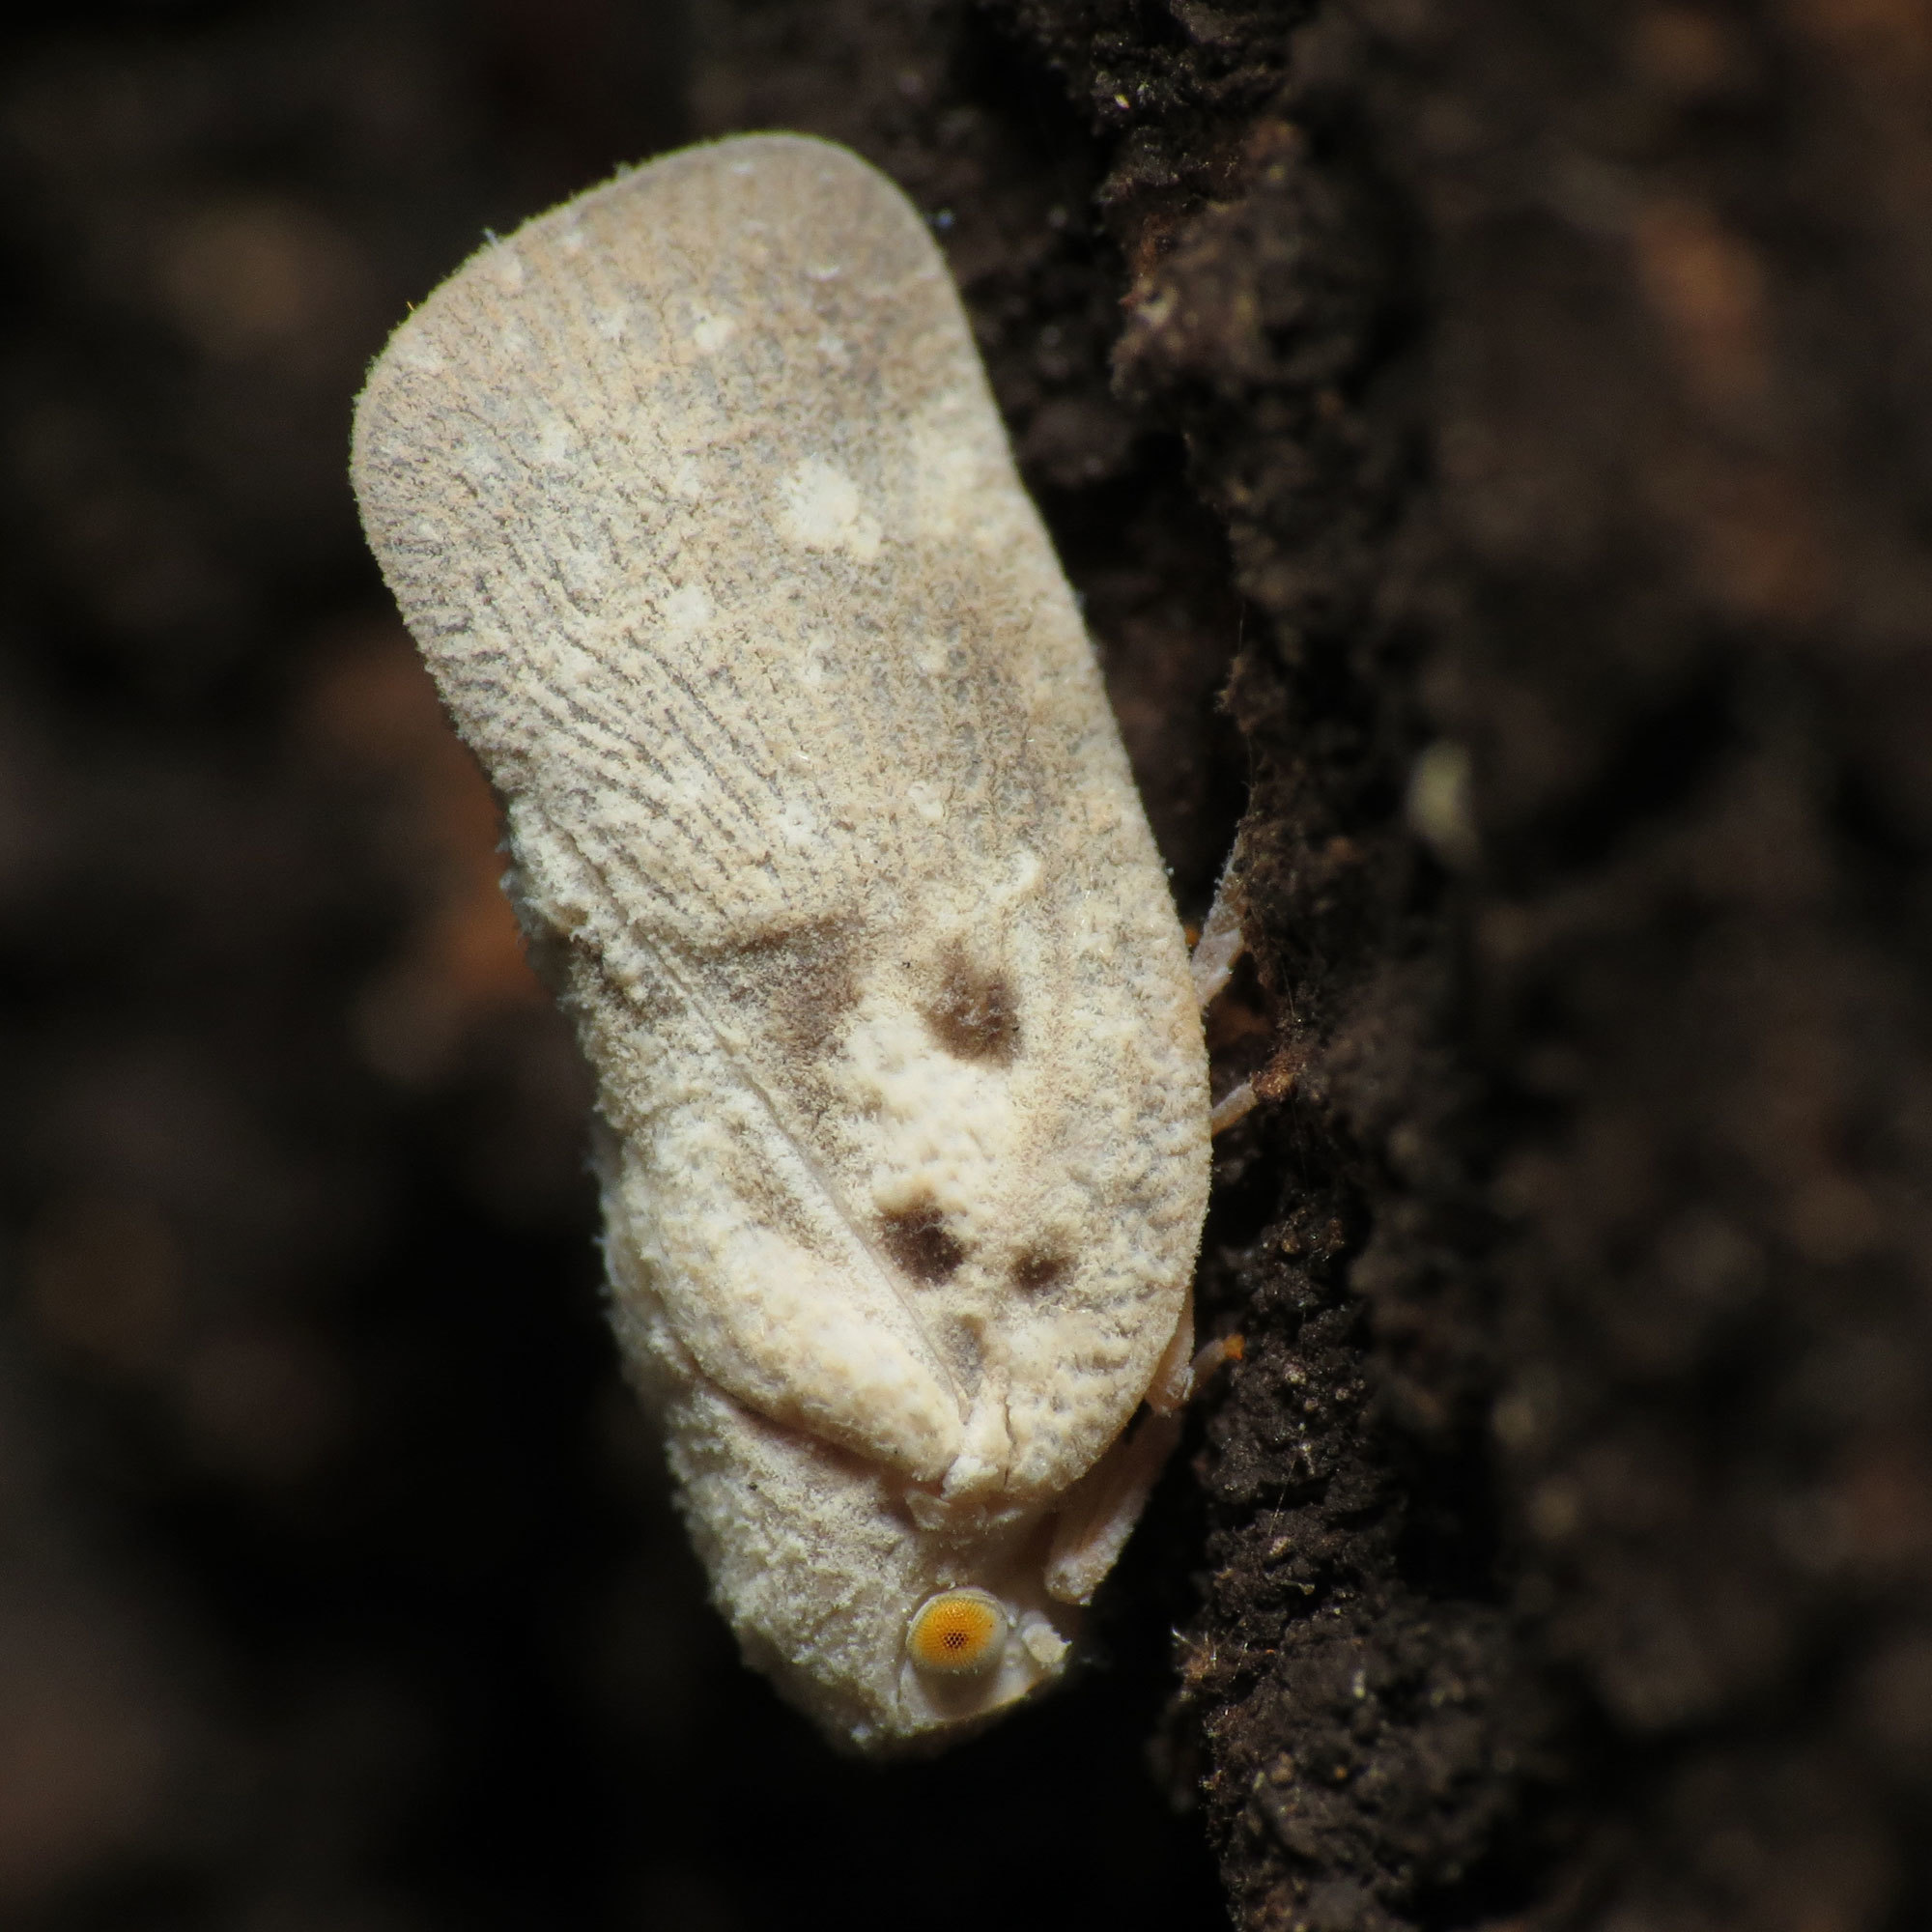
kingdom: Animalia
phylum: Arthropoda
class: Insecta
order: Hemiptera
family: Flatidae
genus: Metcalfa
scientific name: Metcalfa pruinosa
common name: Citrus flatid planthopper
